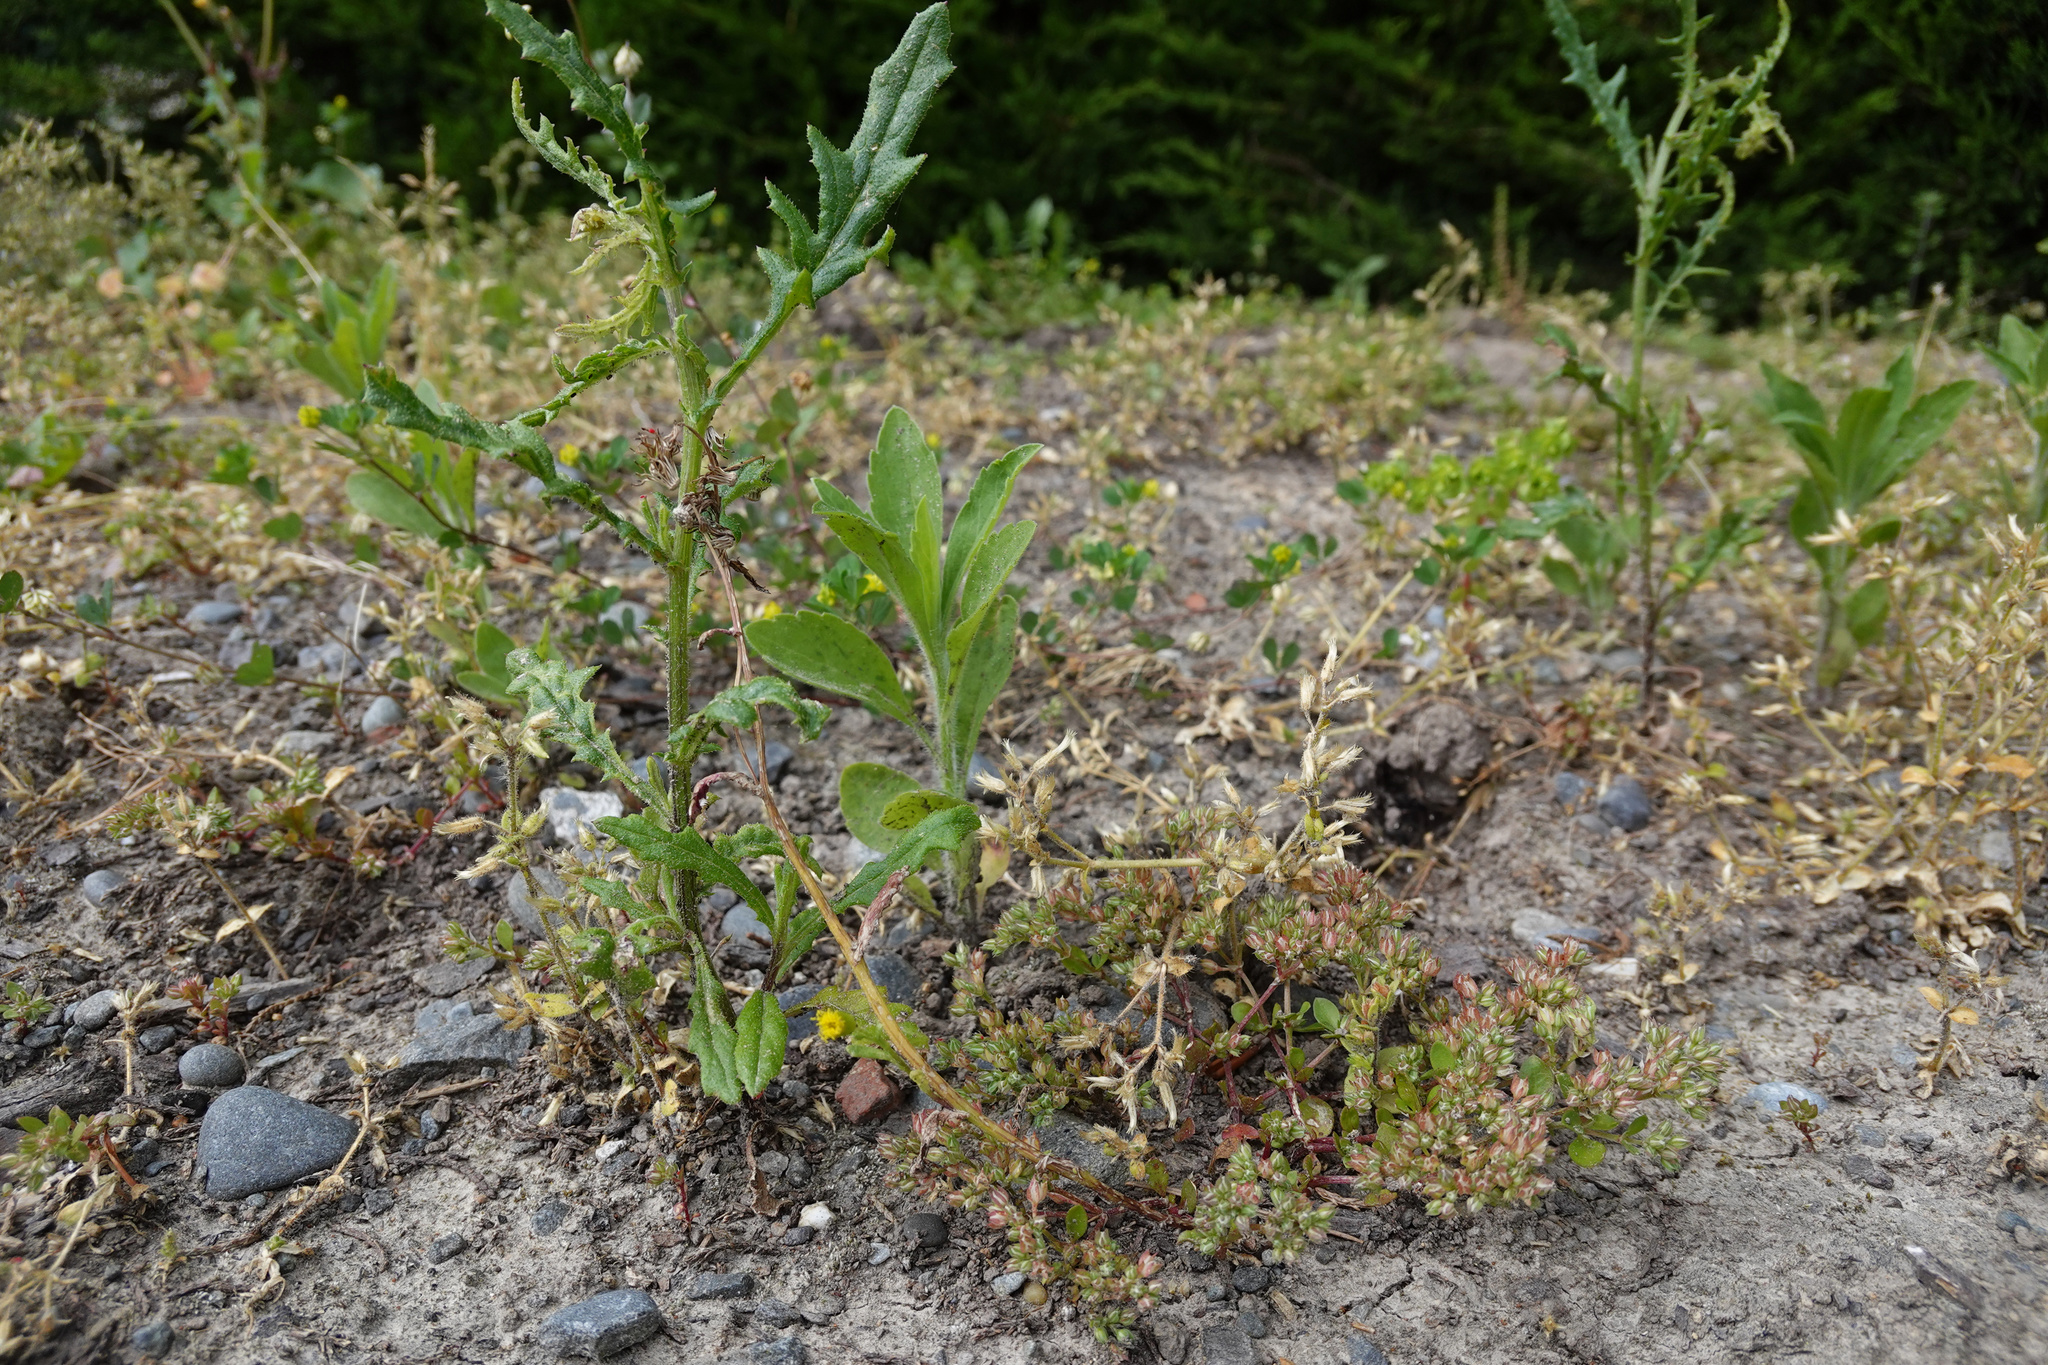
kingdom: Plantae
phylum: Tracheophyta
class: Magnoliopsida
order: Asterales
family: Asteraceae
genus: Senecio
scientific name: Senecio hispidulus
